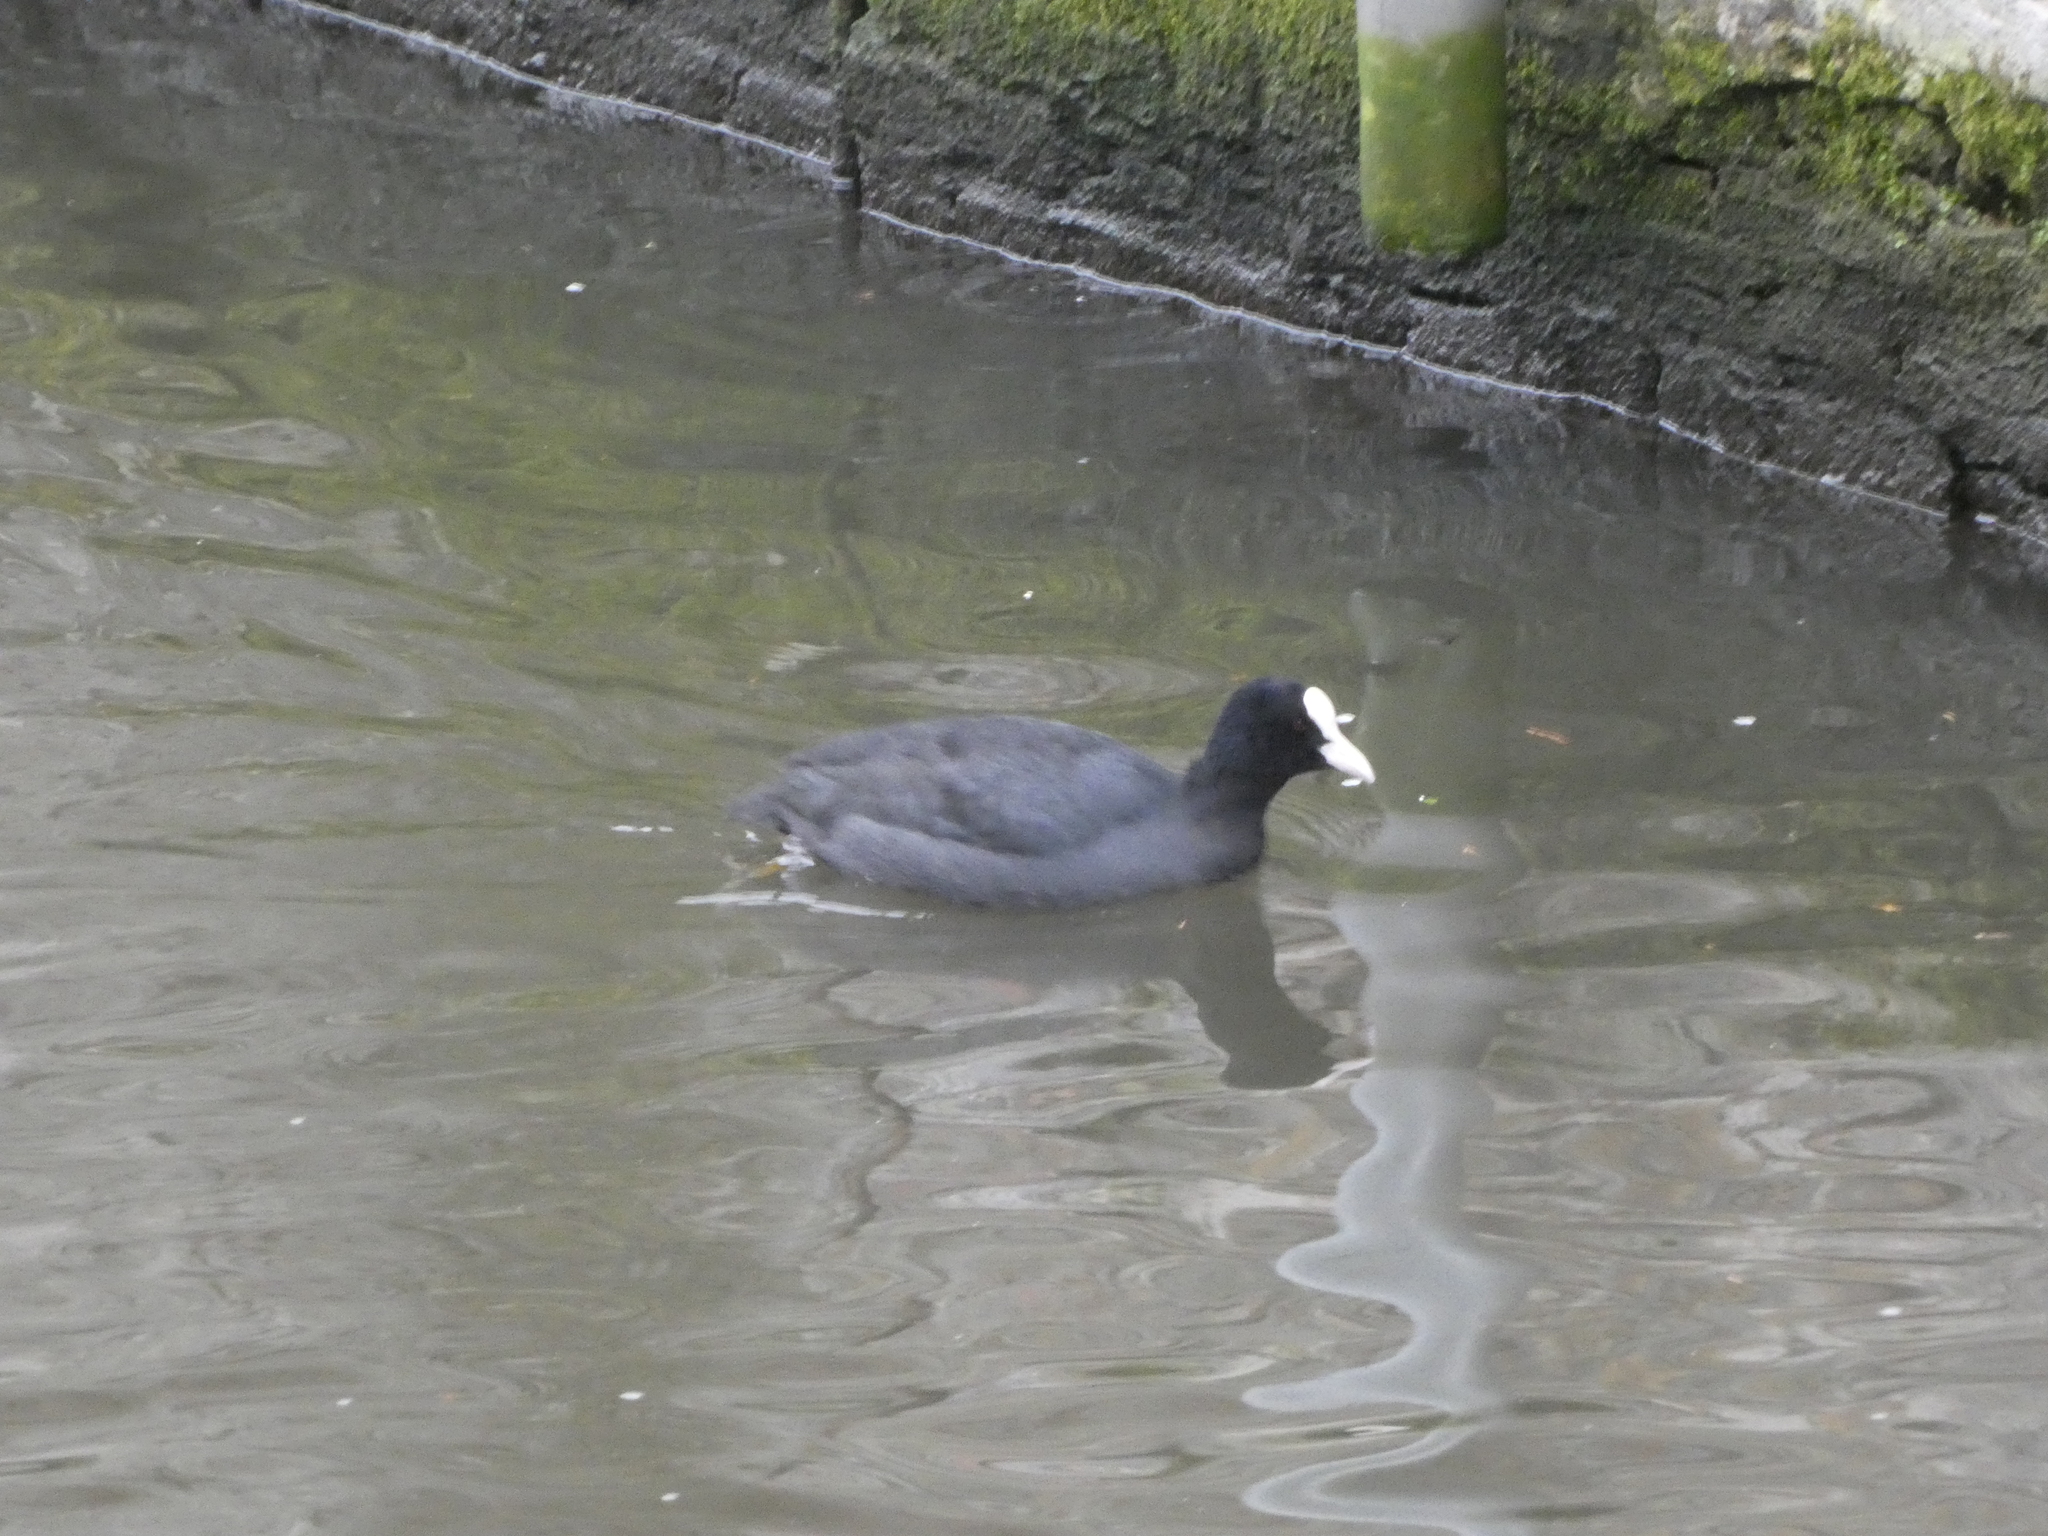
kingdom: Animalia
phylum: Chordata
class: Aves
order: Gruiformes
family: Rallidae
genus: Fulica
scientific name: Fulica atra
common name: Eurasian coot
